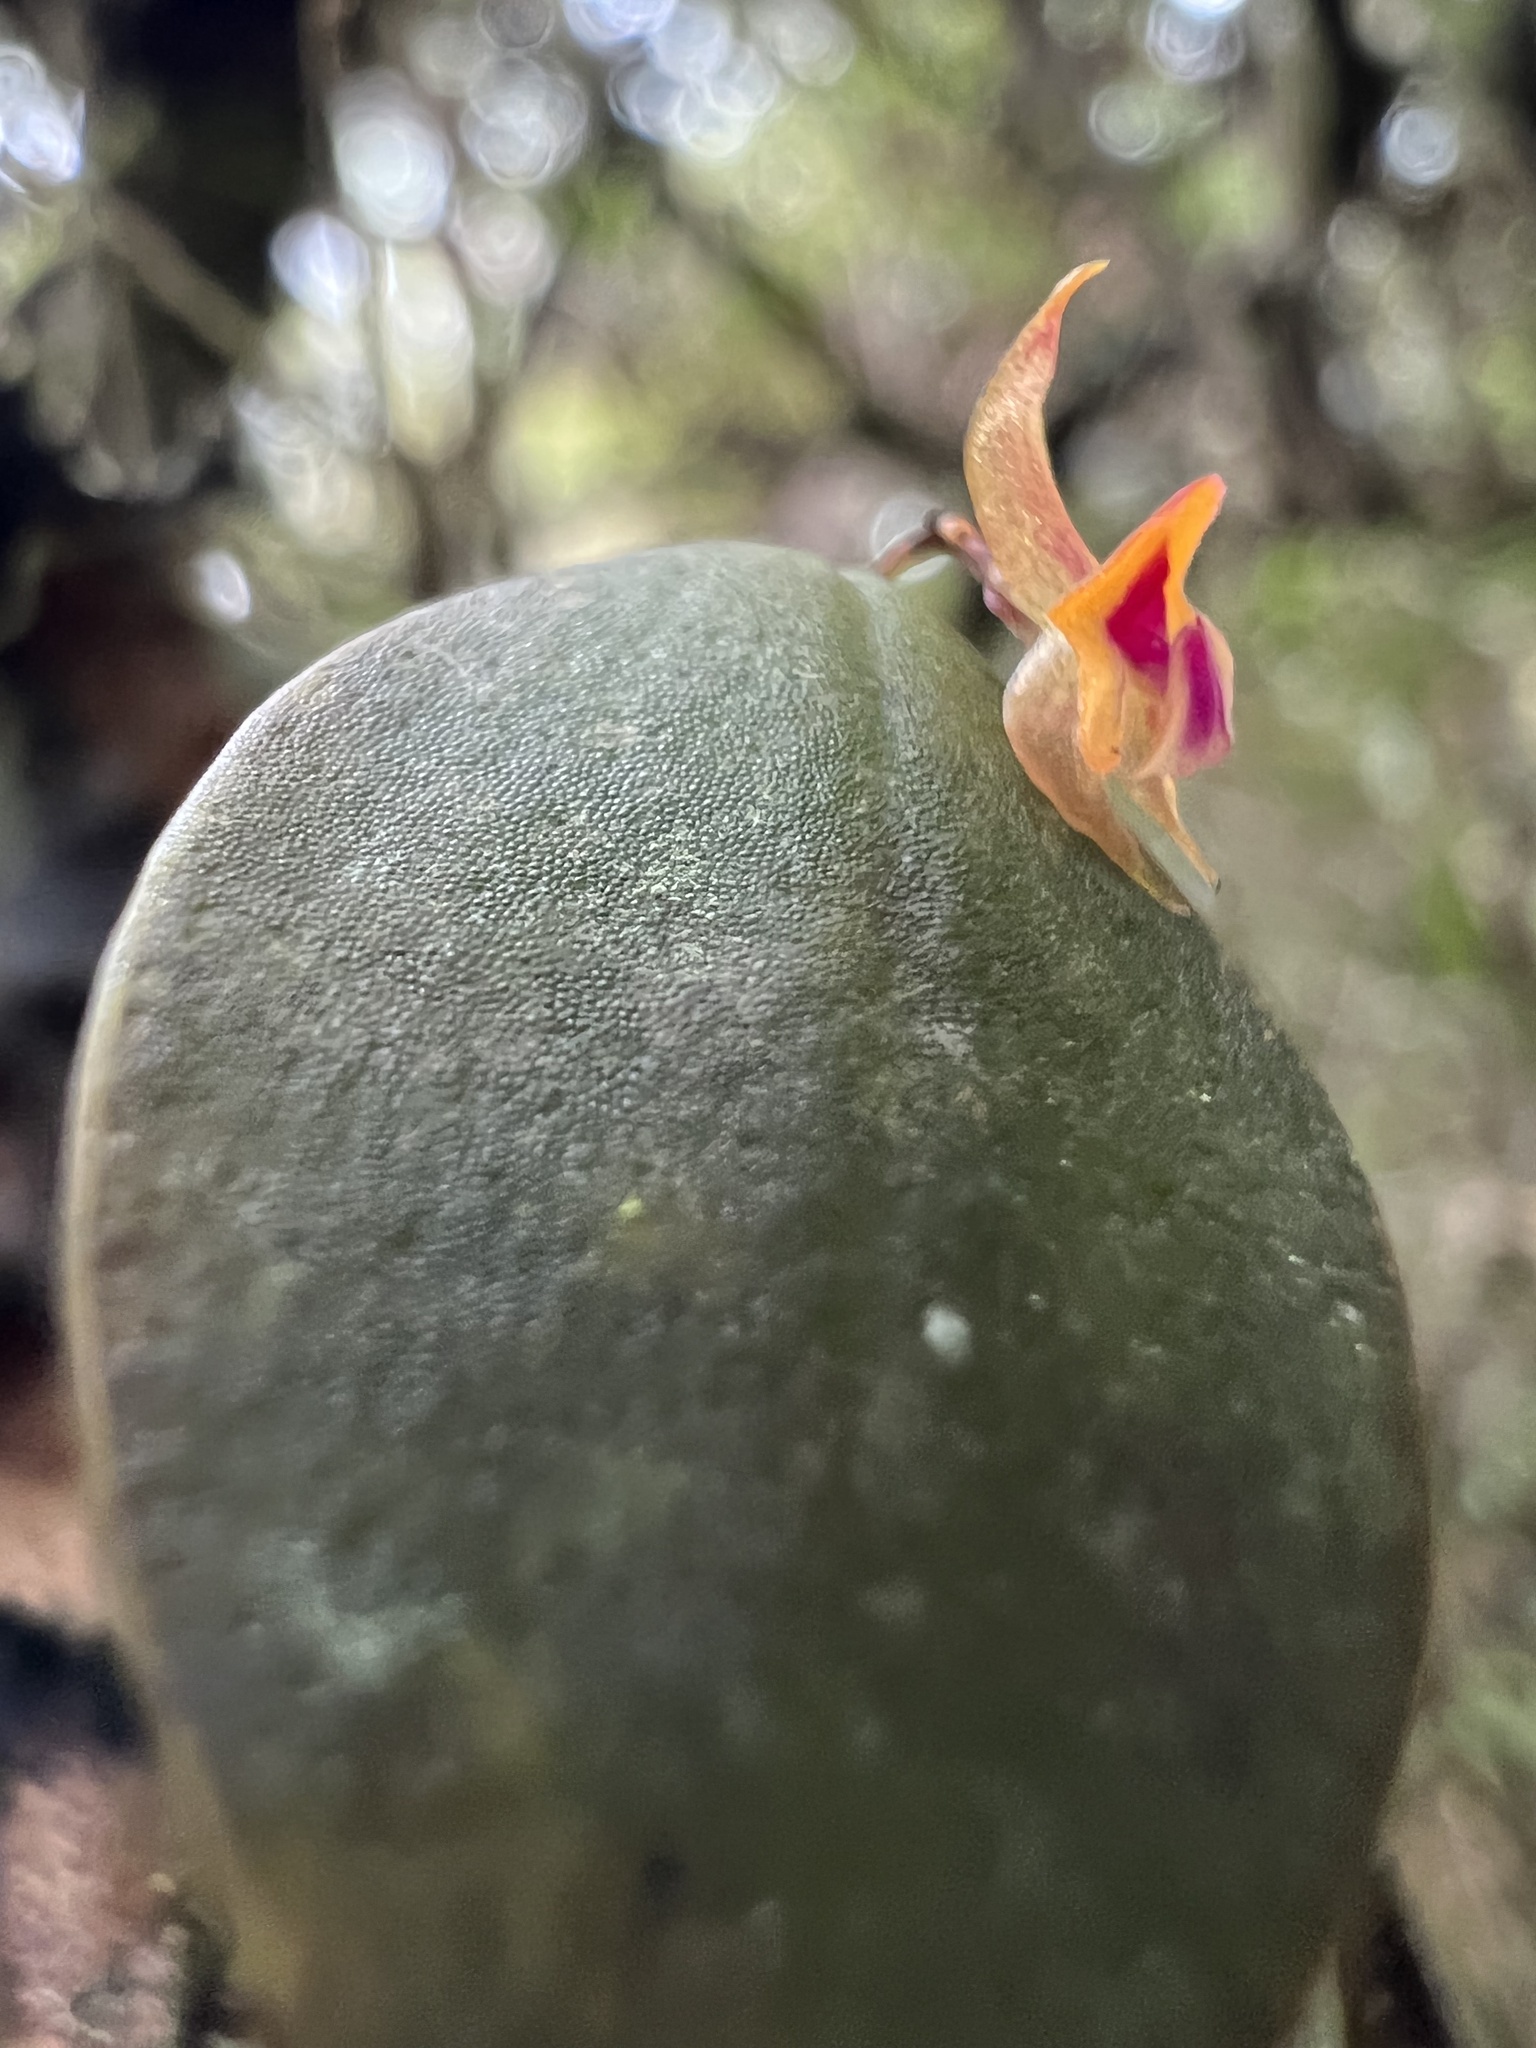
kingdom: Plantae
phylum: Tracheophyta
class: Liliopsida
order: Asparagales
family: Orchidaceae
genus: Lepanthes
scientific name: Lepanthes wageneri
